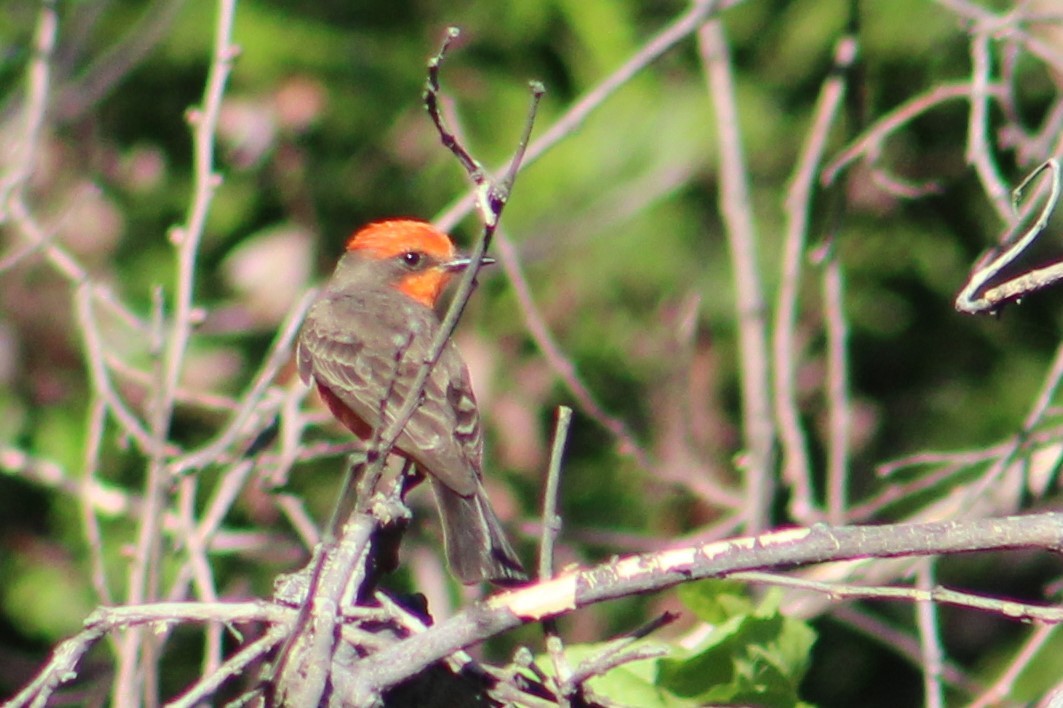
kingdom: Animalia
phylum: Chordata
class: Aves
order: Passeriformes
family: Tyrannidae
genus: Pyrocephalus
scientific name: Pyrocephalus rubinus
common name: Vermilion flycatcher
